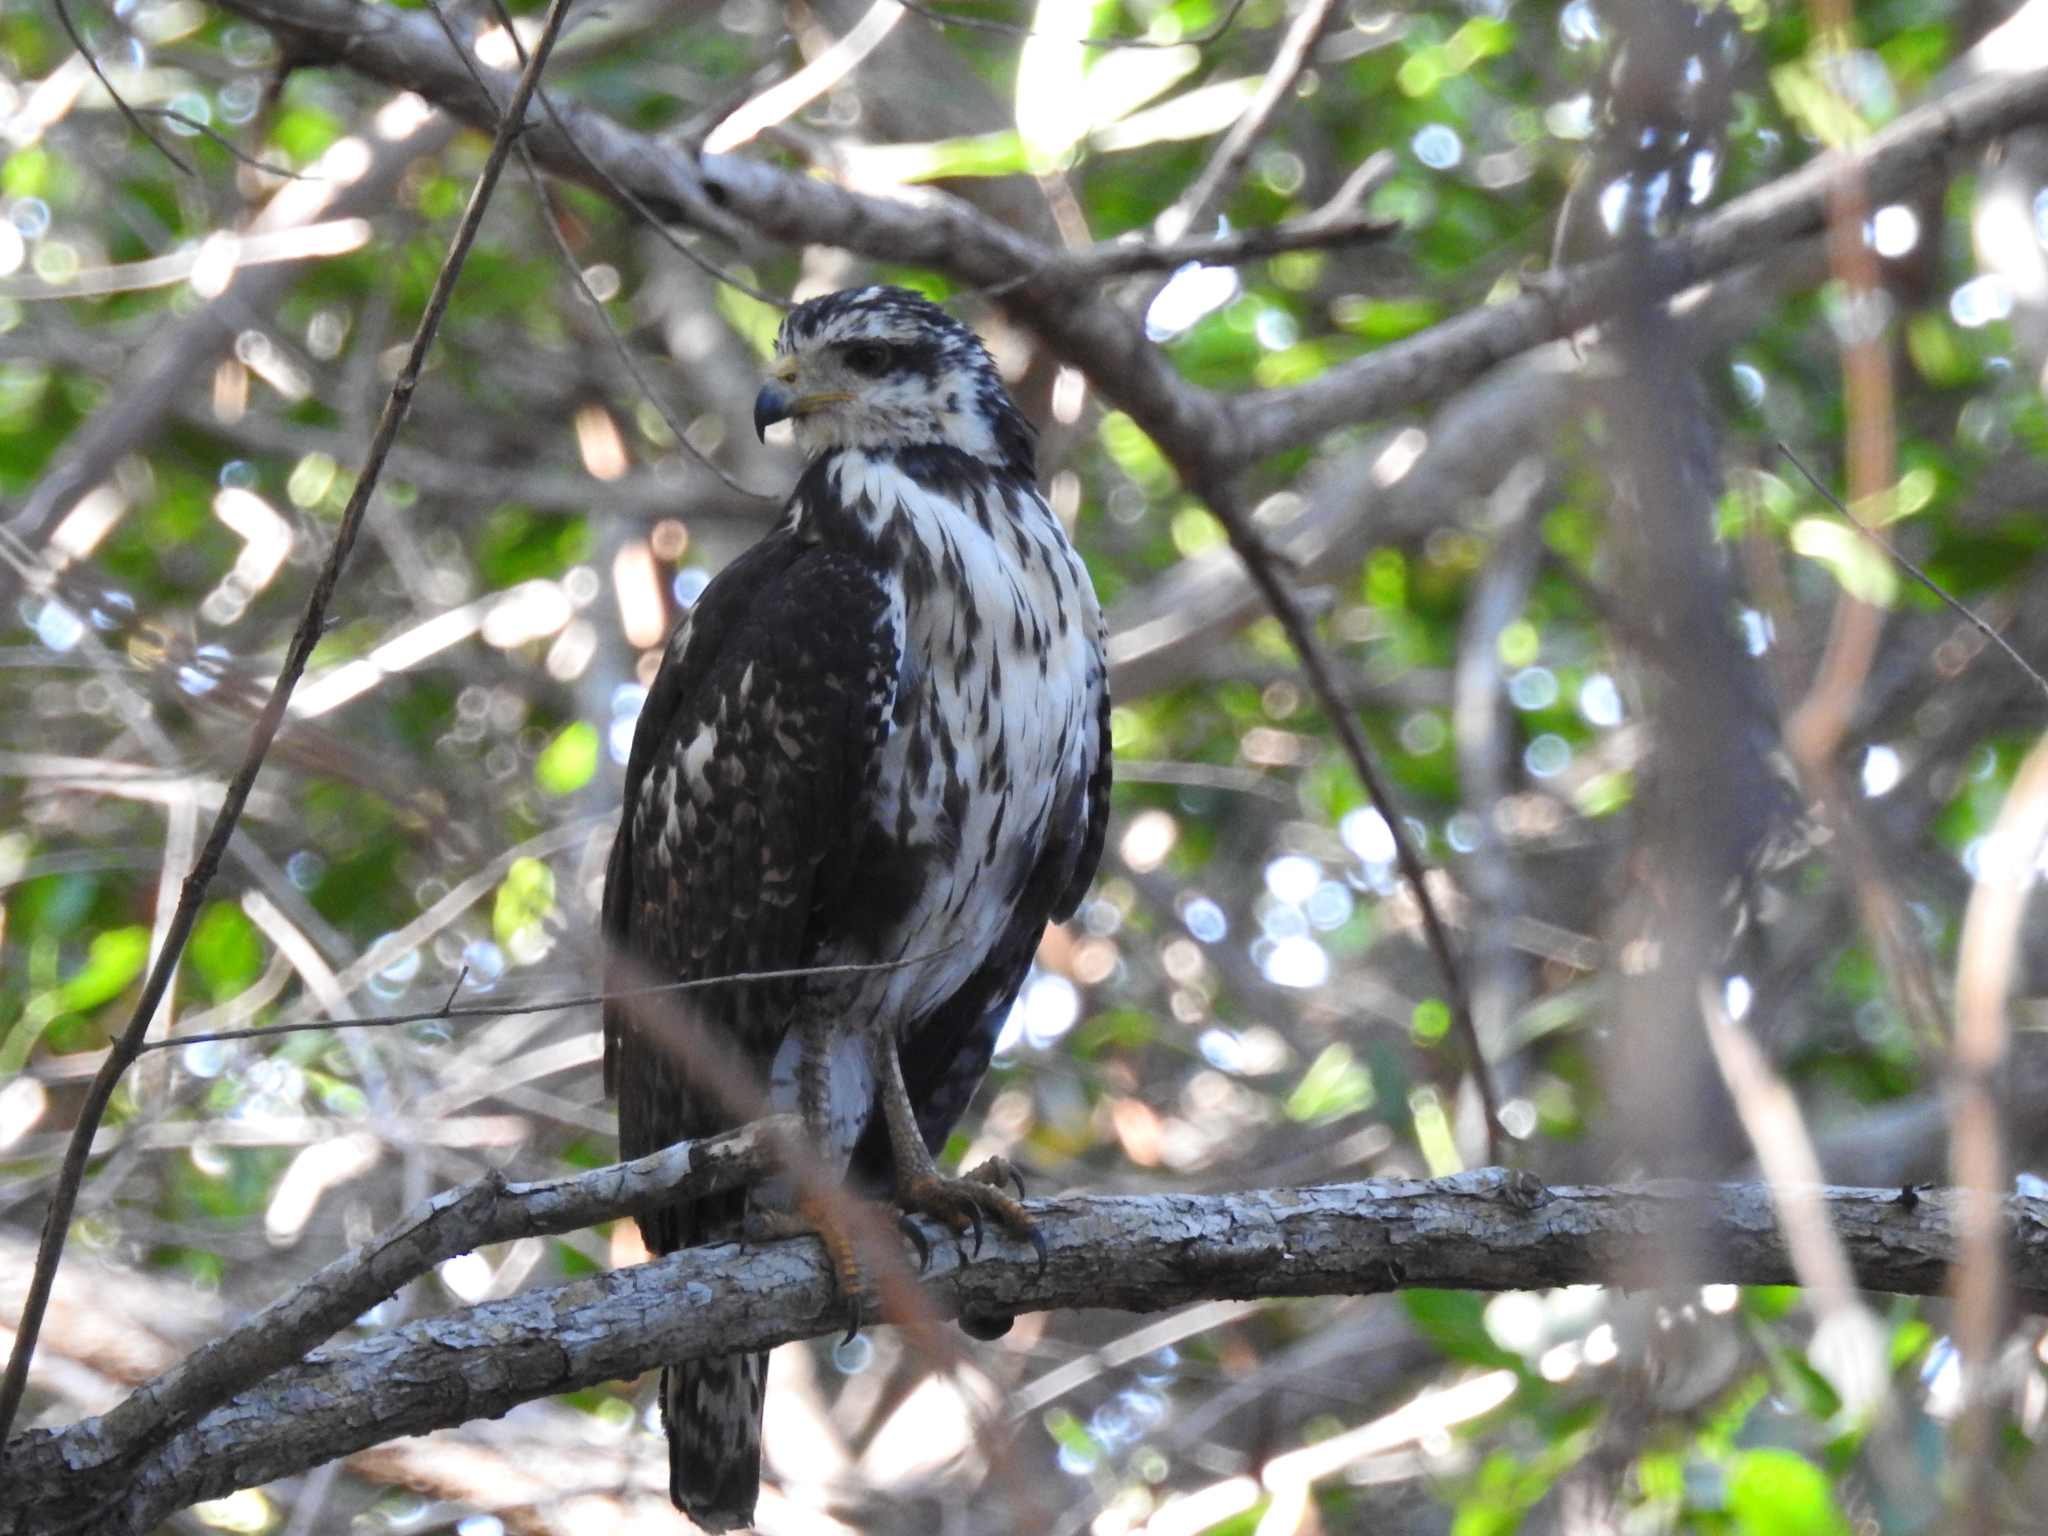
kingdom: Animalia
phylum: Chordata
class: Aves
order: Accipitriformes
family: Accipitridae
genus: Buteogallus
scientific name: Buteogallus anthracinus
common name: Common black hawk
